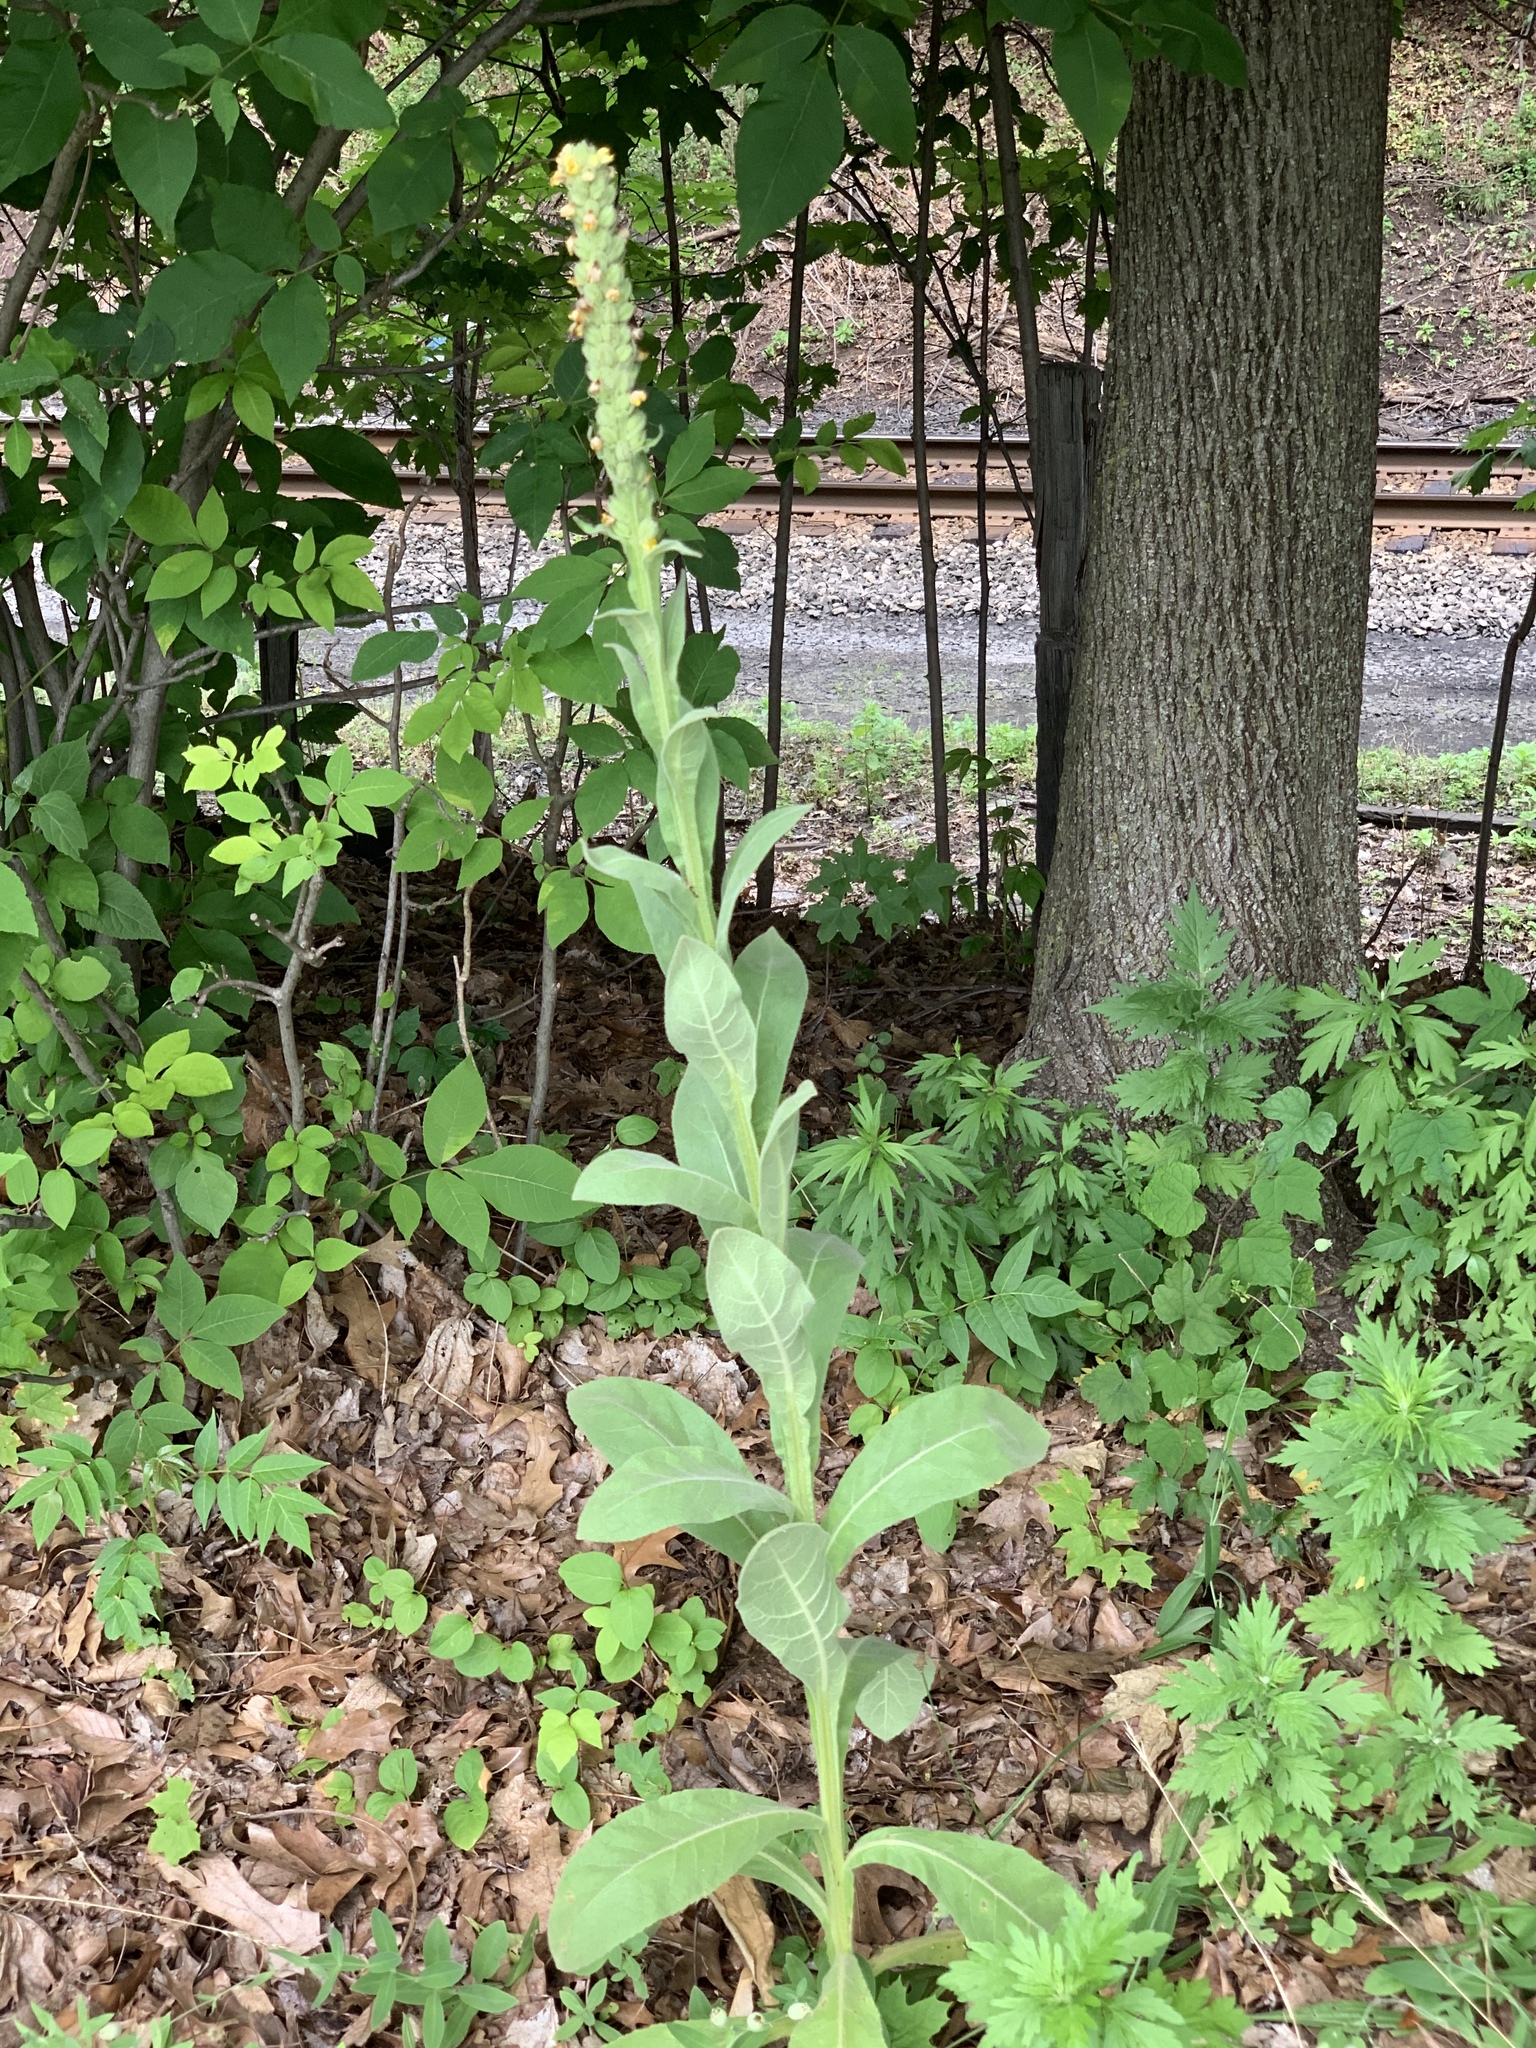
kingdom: Plantae
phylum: Tracheophyta
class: Magnoliopsida
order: Lamiales
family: Scrophulariaceae
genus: Verbascum
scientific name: Verbascum thapsus
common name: Common mullein
